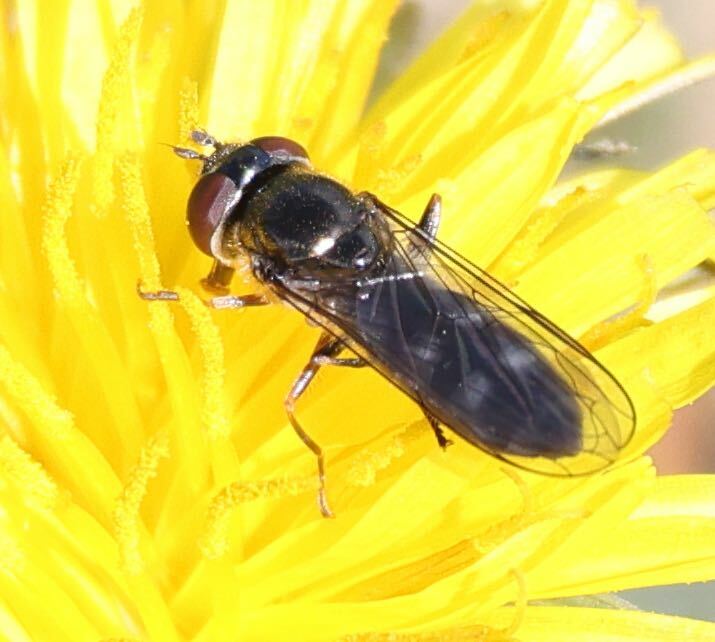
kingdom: Animalia
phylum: Arthropoda
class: Insecta
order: Diptera
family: Syrphidae
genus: Platycheirus
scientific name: Platycheirus albimanus
